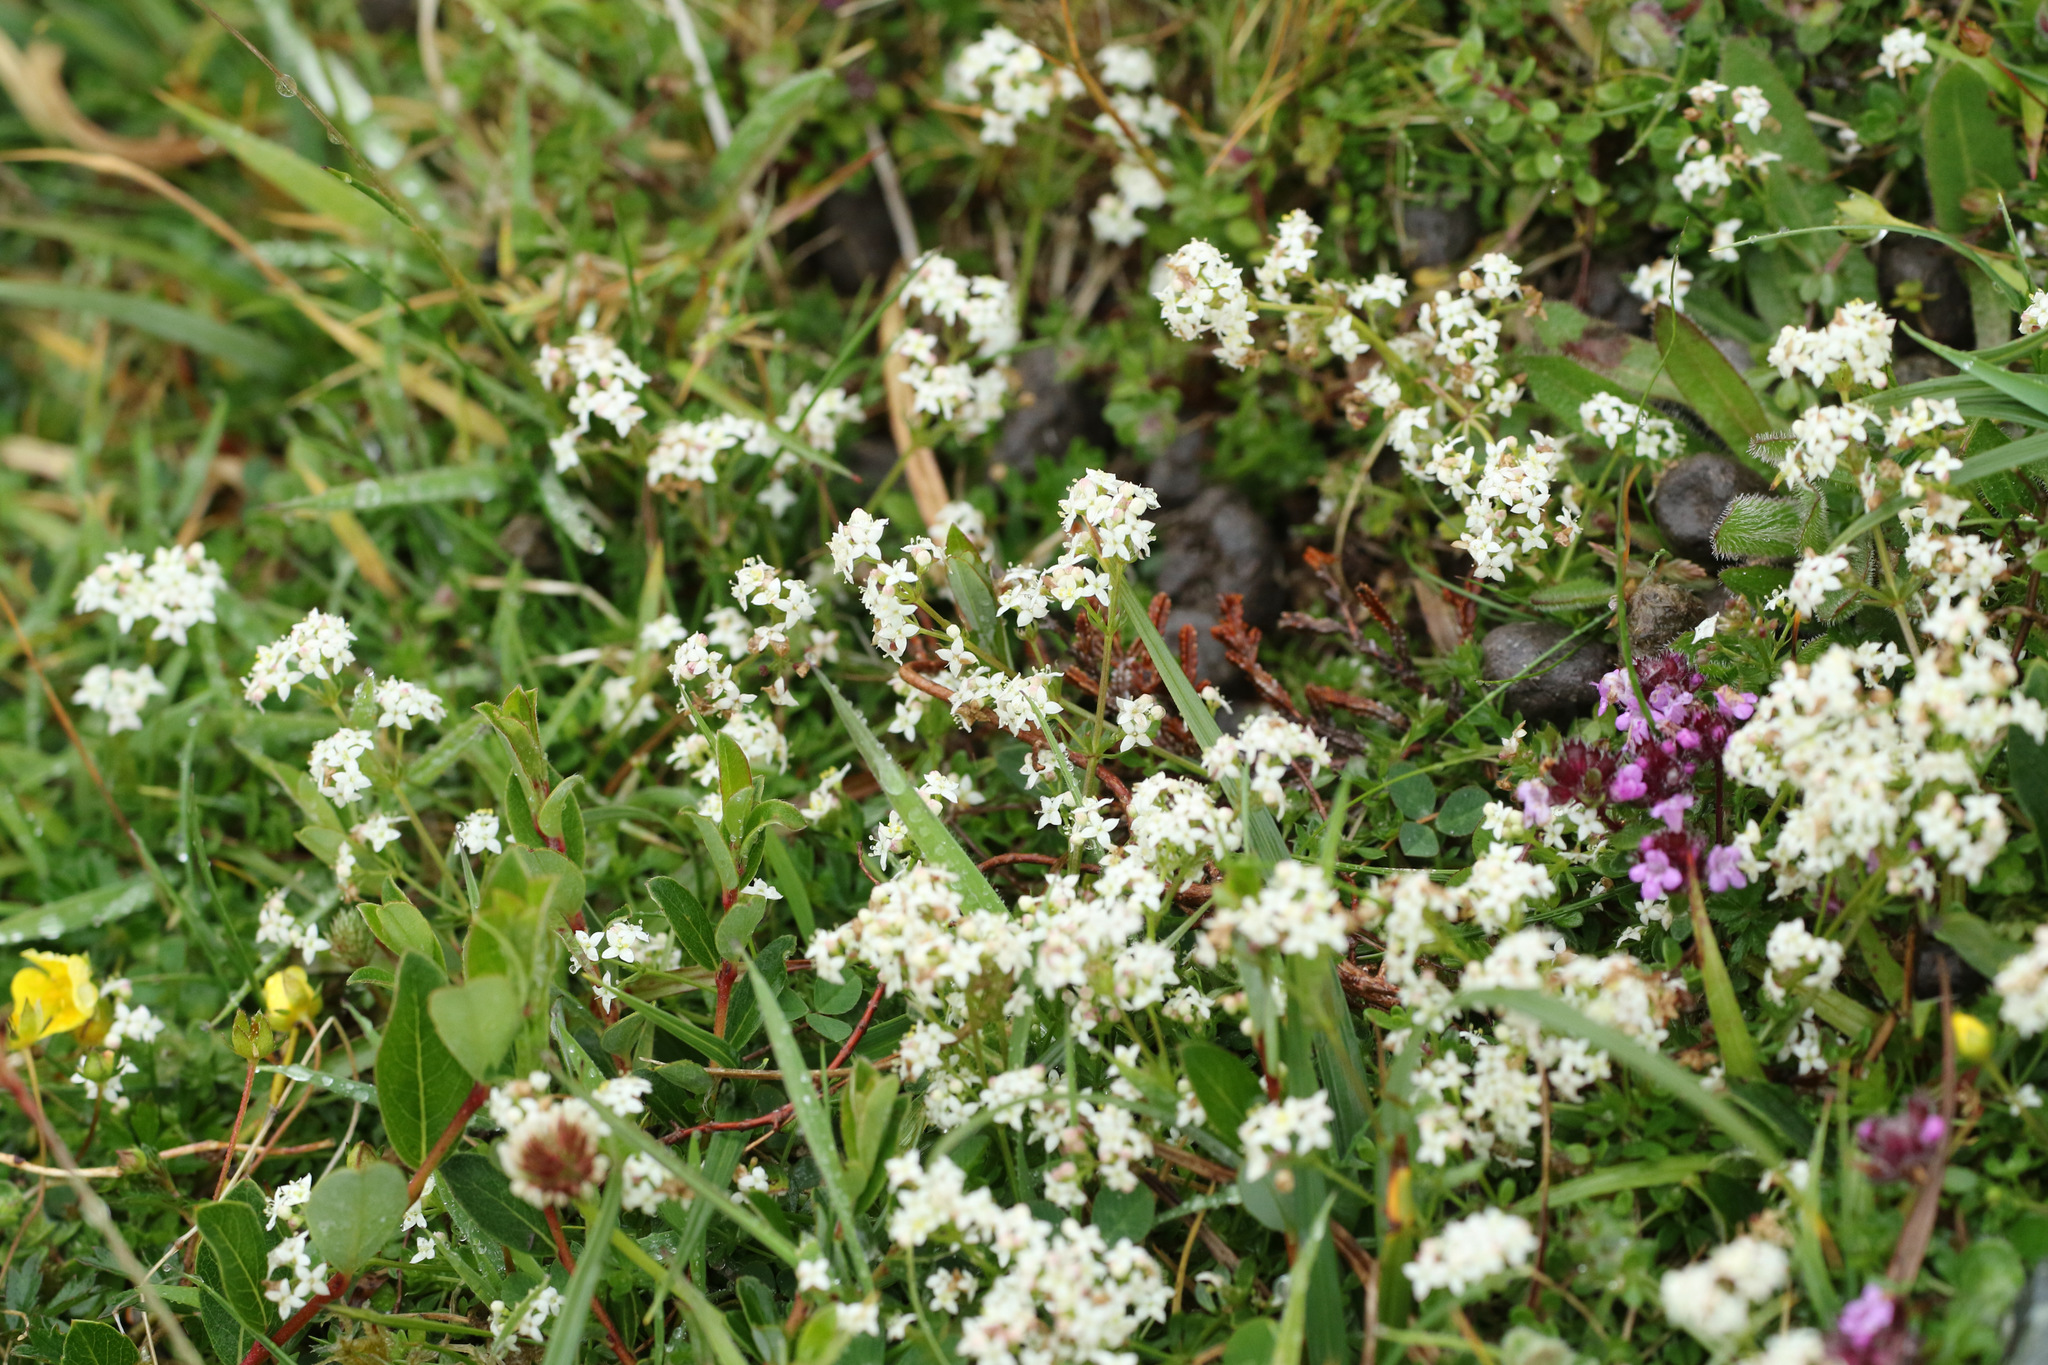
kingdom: Plantae
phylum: Tracheophyta
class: Magnoliopsida
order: Gentianales
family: Rubiaceae
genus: Galium
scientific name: Galium saxatile
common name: Heath bedstraw
